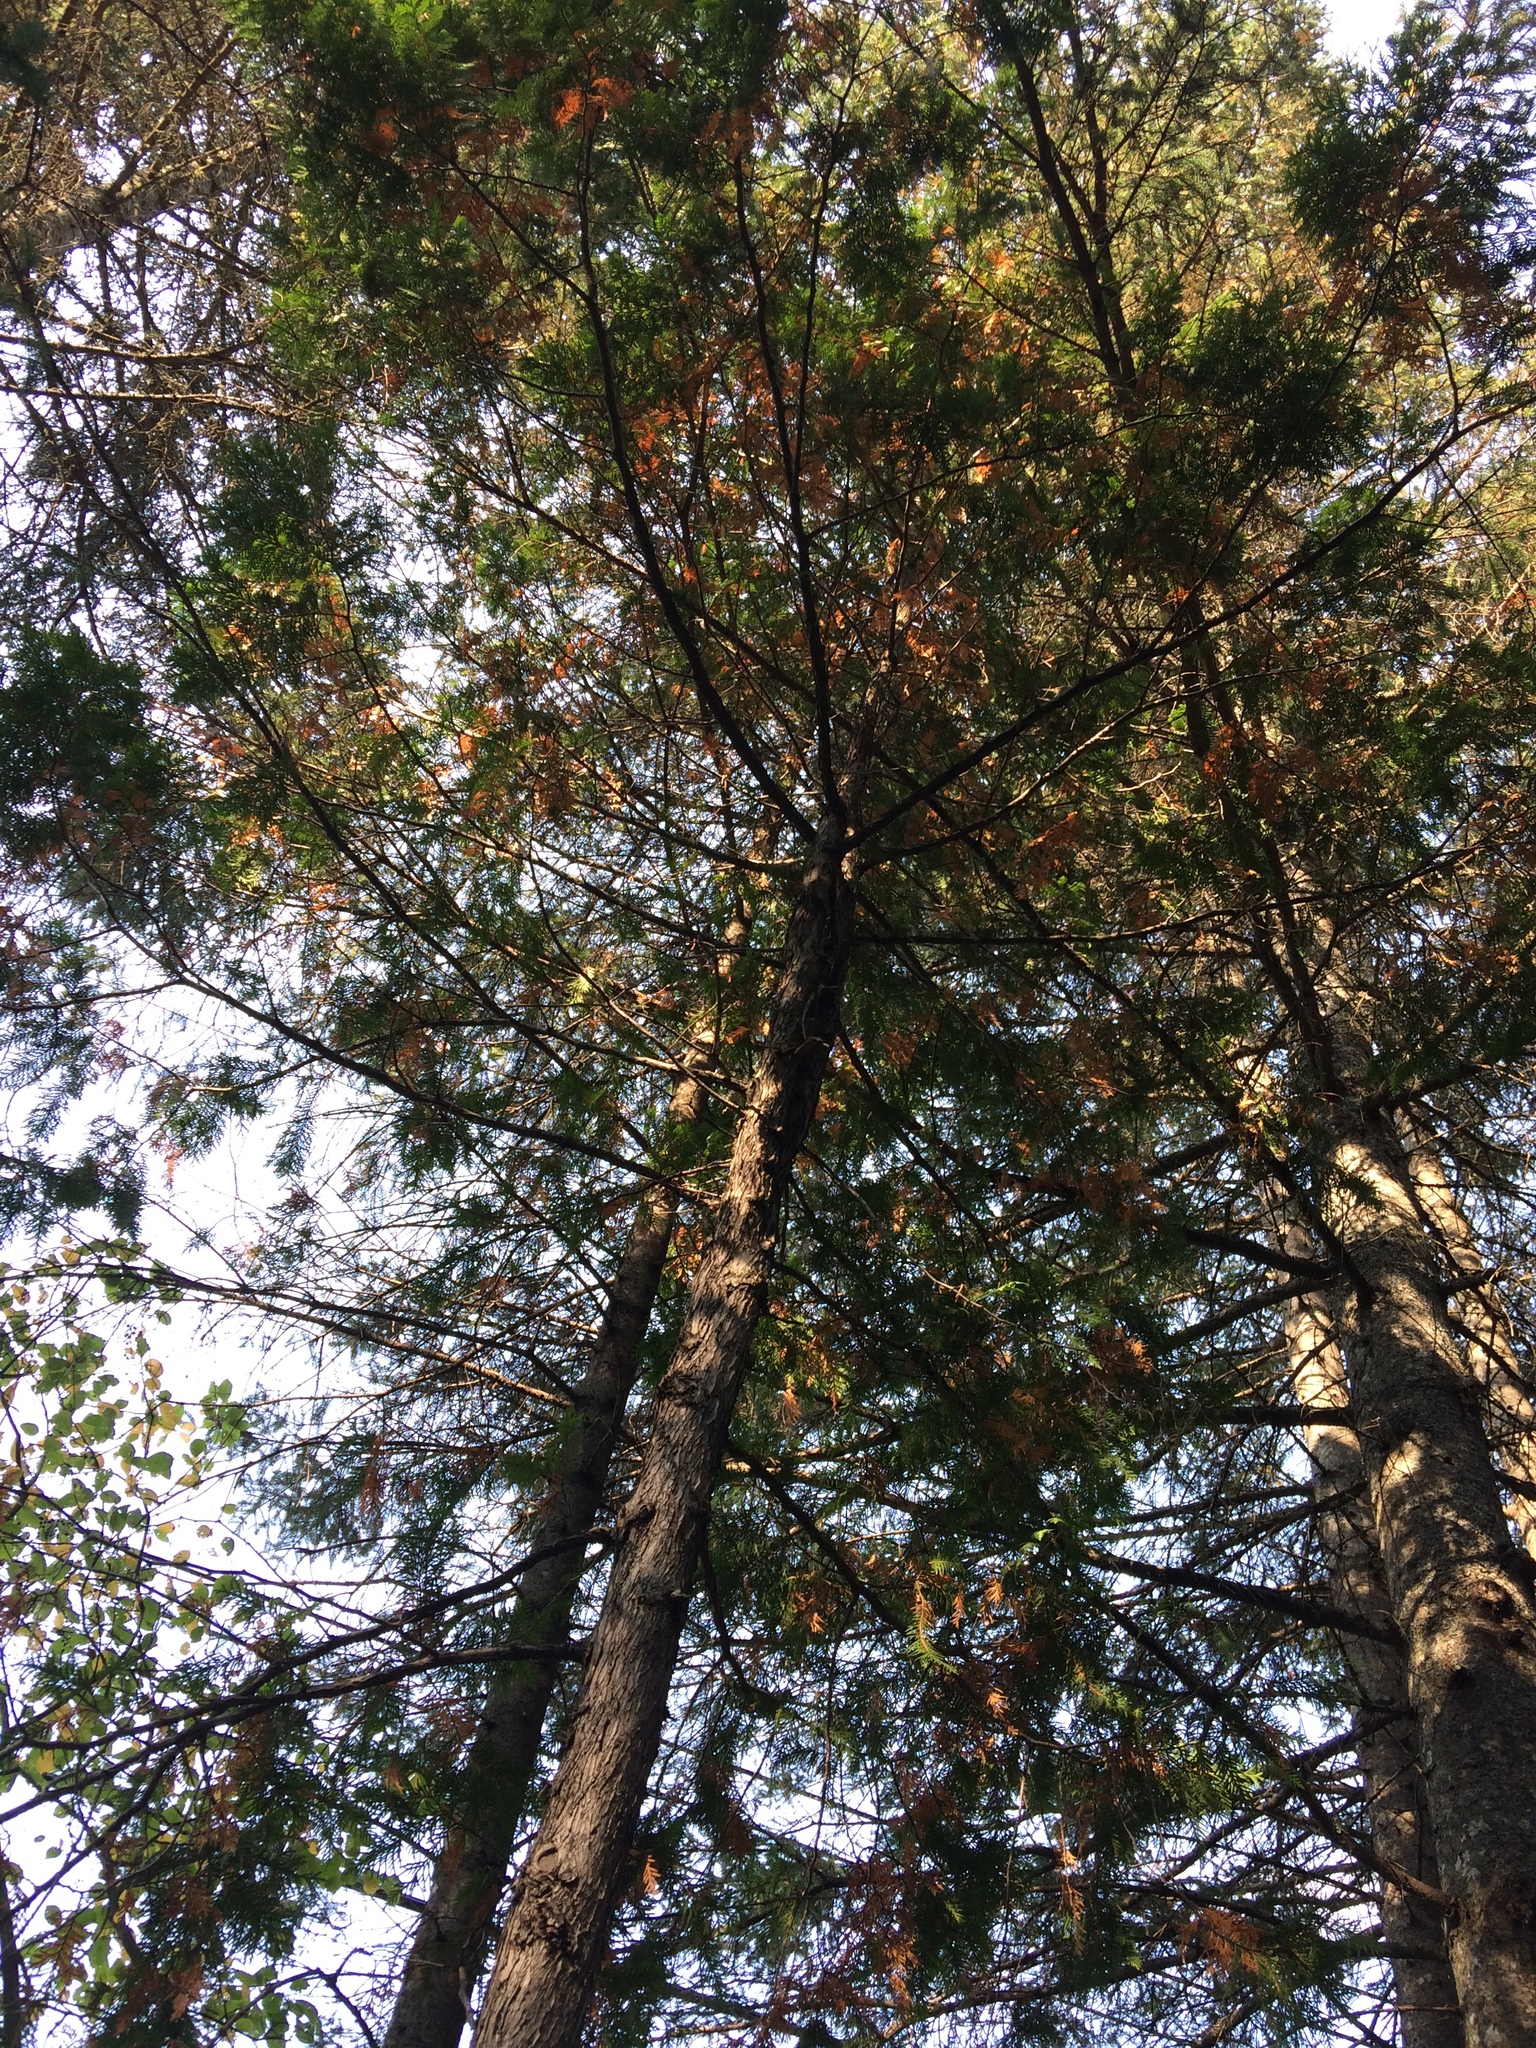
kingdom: Plantae
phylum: Tracheophyta
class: Pinopsida
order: Pinales
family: Cupressaceae
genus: Thuja
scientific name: Thuja occidentalis
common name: Northern white-cedar
